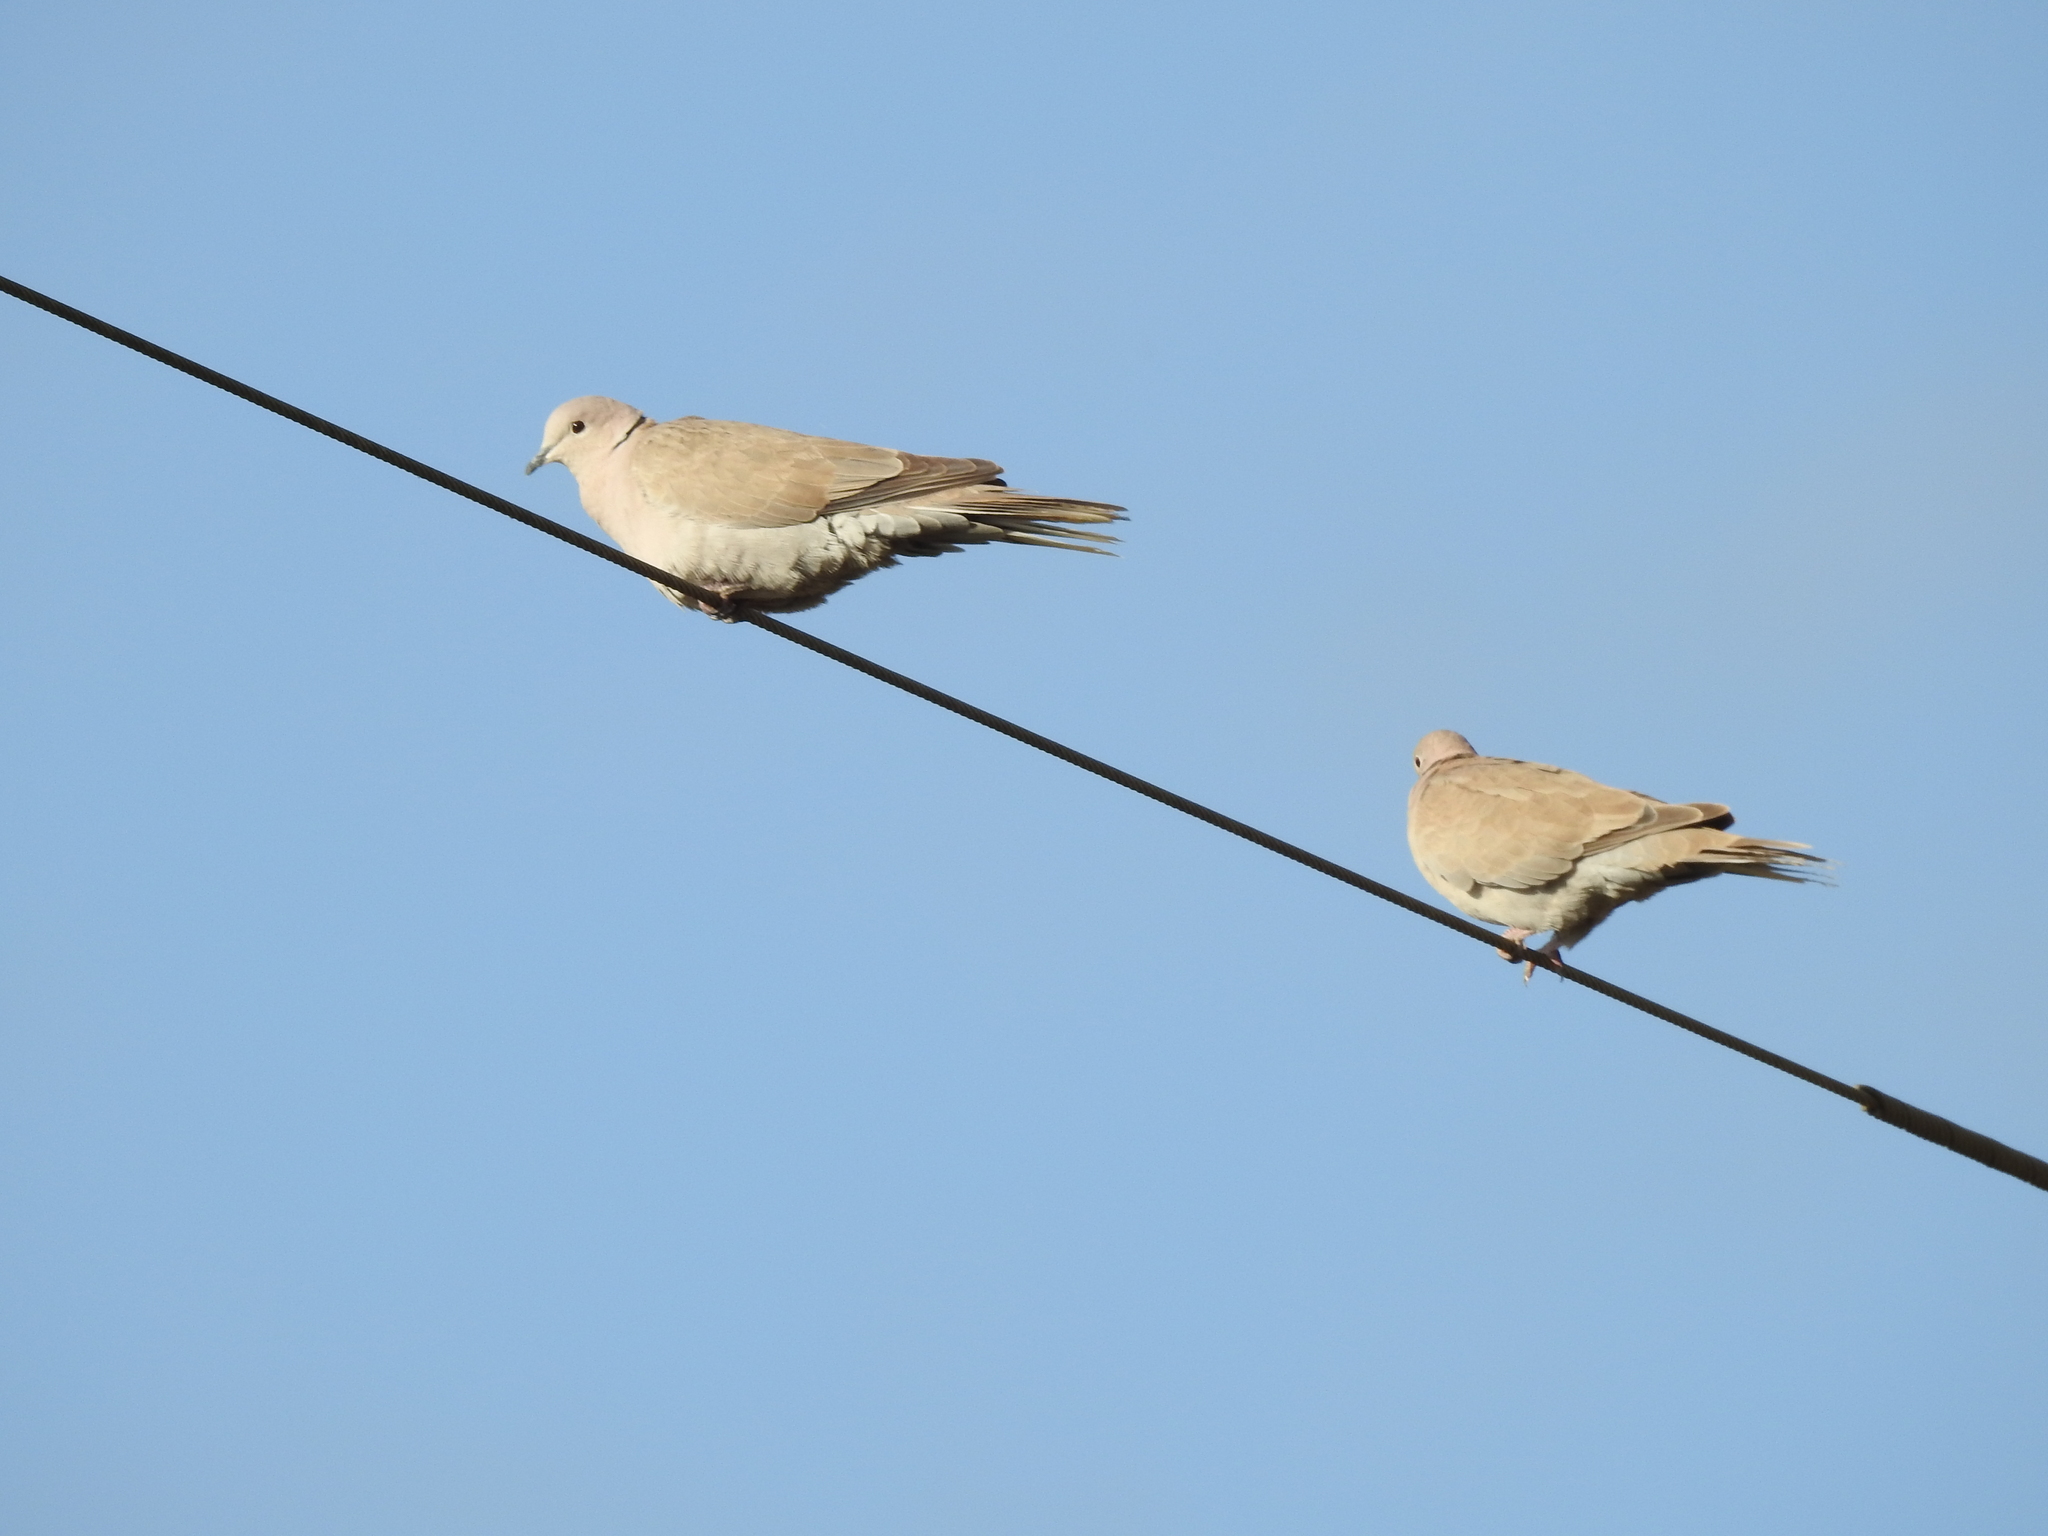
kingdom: Animalia
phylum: Chordata
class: Aves
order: Columbiformes
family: Columbidae
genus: Streptopelia
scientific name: Streptopelia decaocto
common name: Eurasian collared dove
